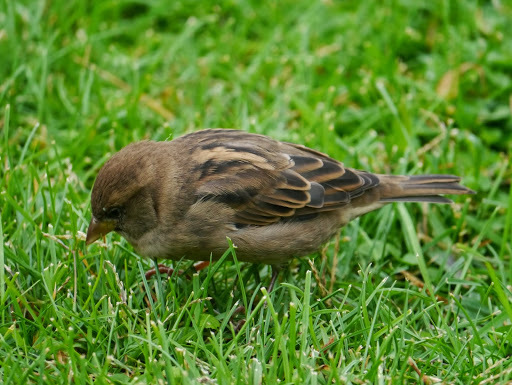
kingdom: Animalia
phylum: Chordata
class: Aves
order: Passeriformes
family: Passeridae
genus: Passer
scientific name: Passer italiae
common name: Italian sparrow
